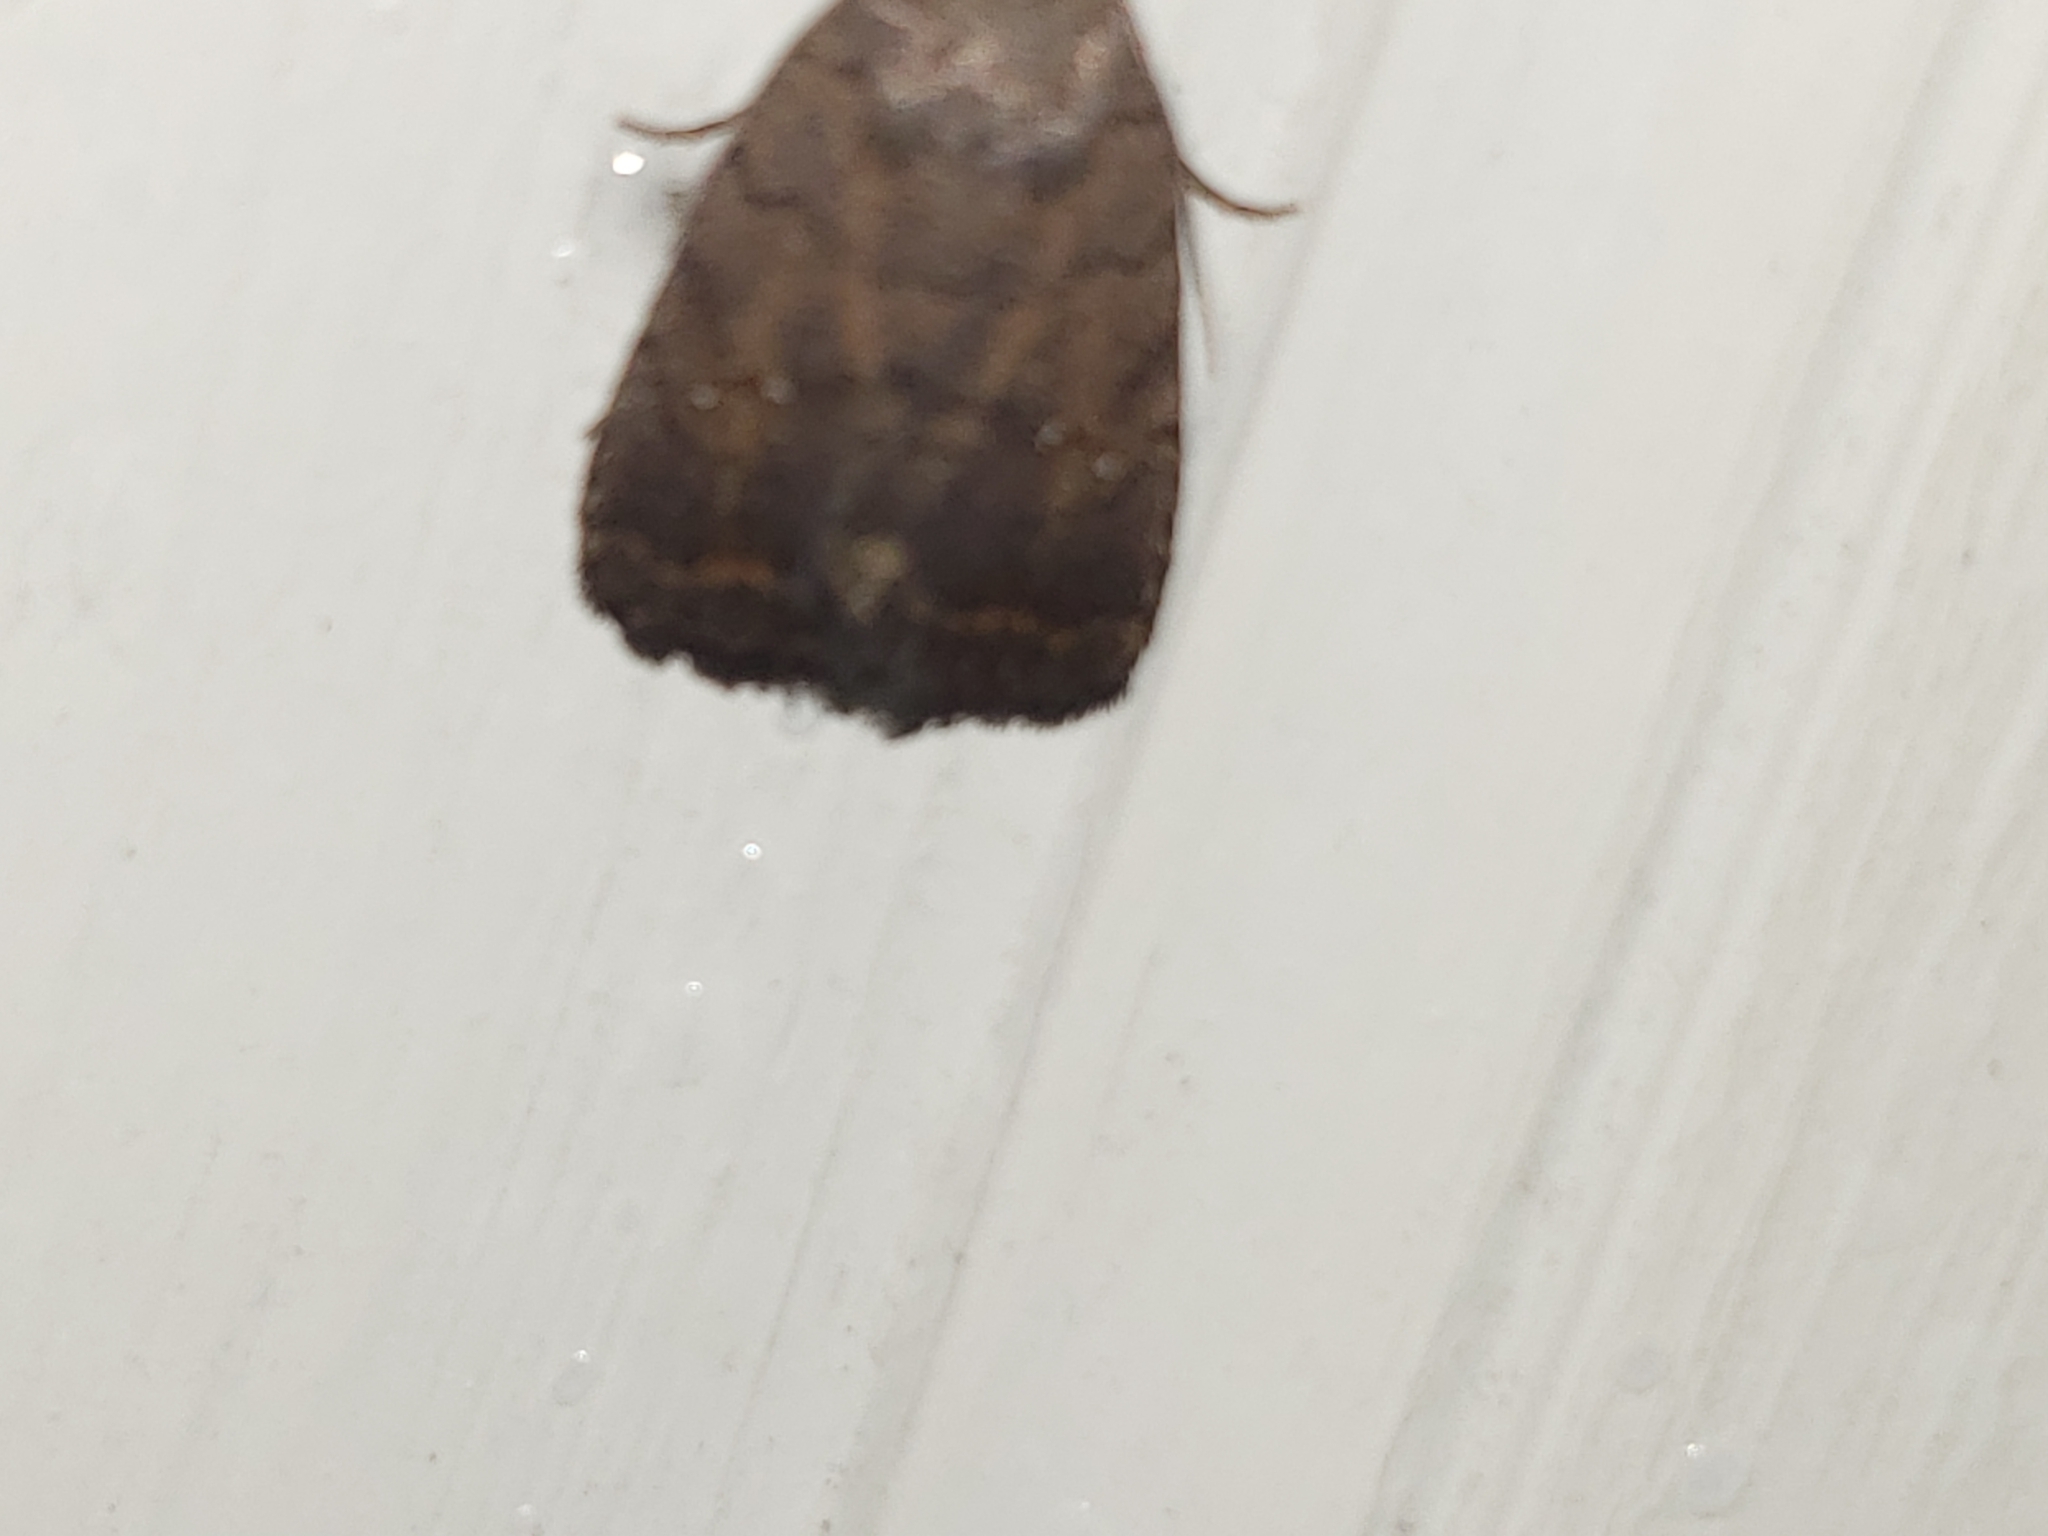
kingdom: Animalia
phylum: Arthropoda
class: Insecta
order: Lepidoptera
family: Noctuidae
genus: Athetis
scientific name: Athetis tarda
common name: Slowpoke moth
